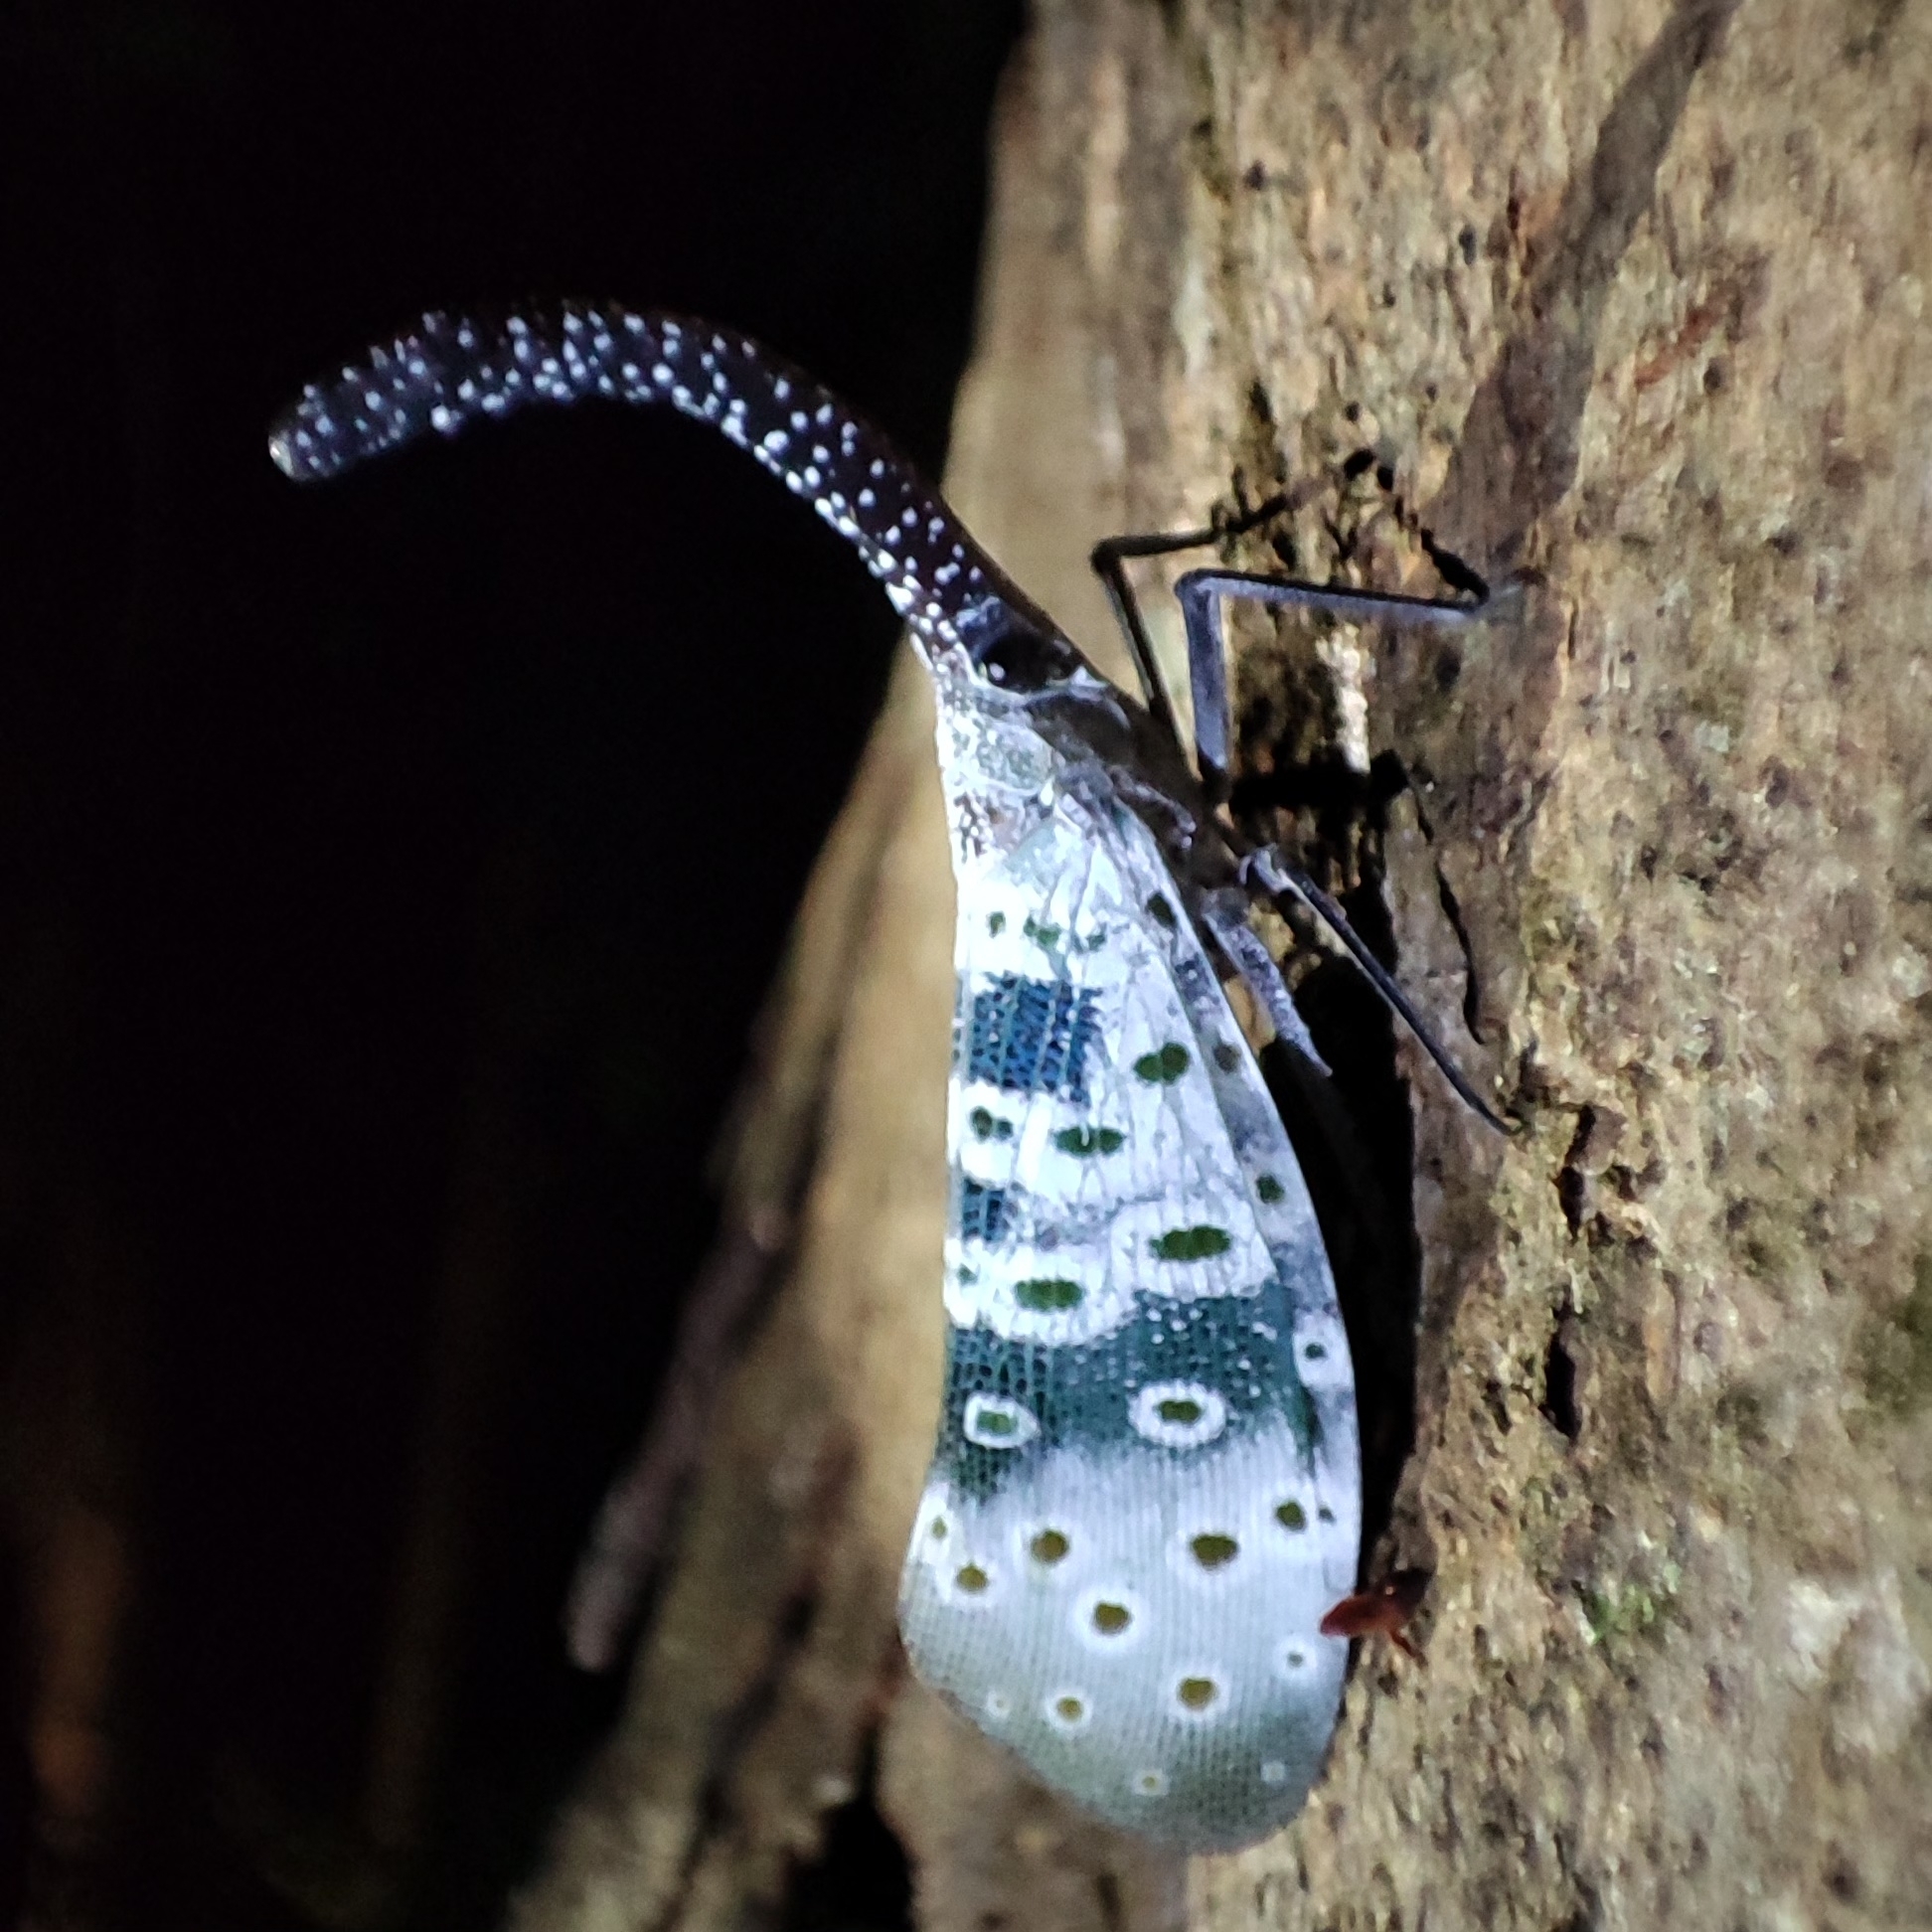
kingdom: Animalia
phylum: Arthropoda
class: Insecta
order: Hemiptera
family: Fulgoridae
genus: Pyrops
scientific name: Pyrops coelestinus
